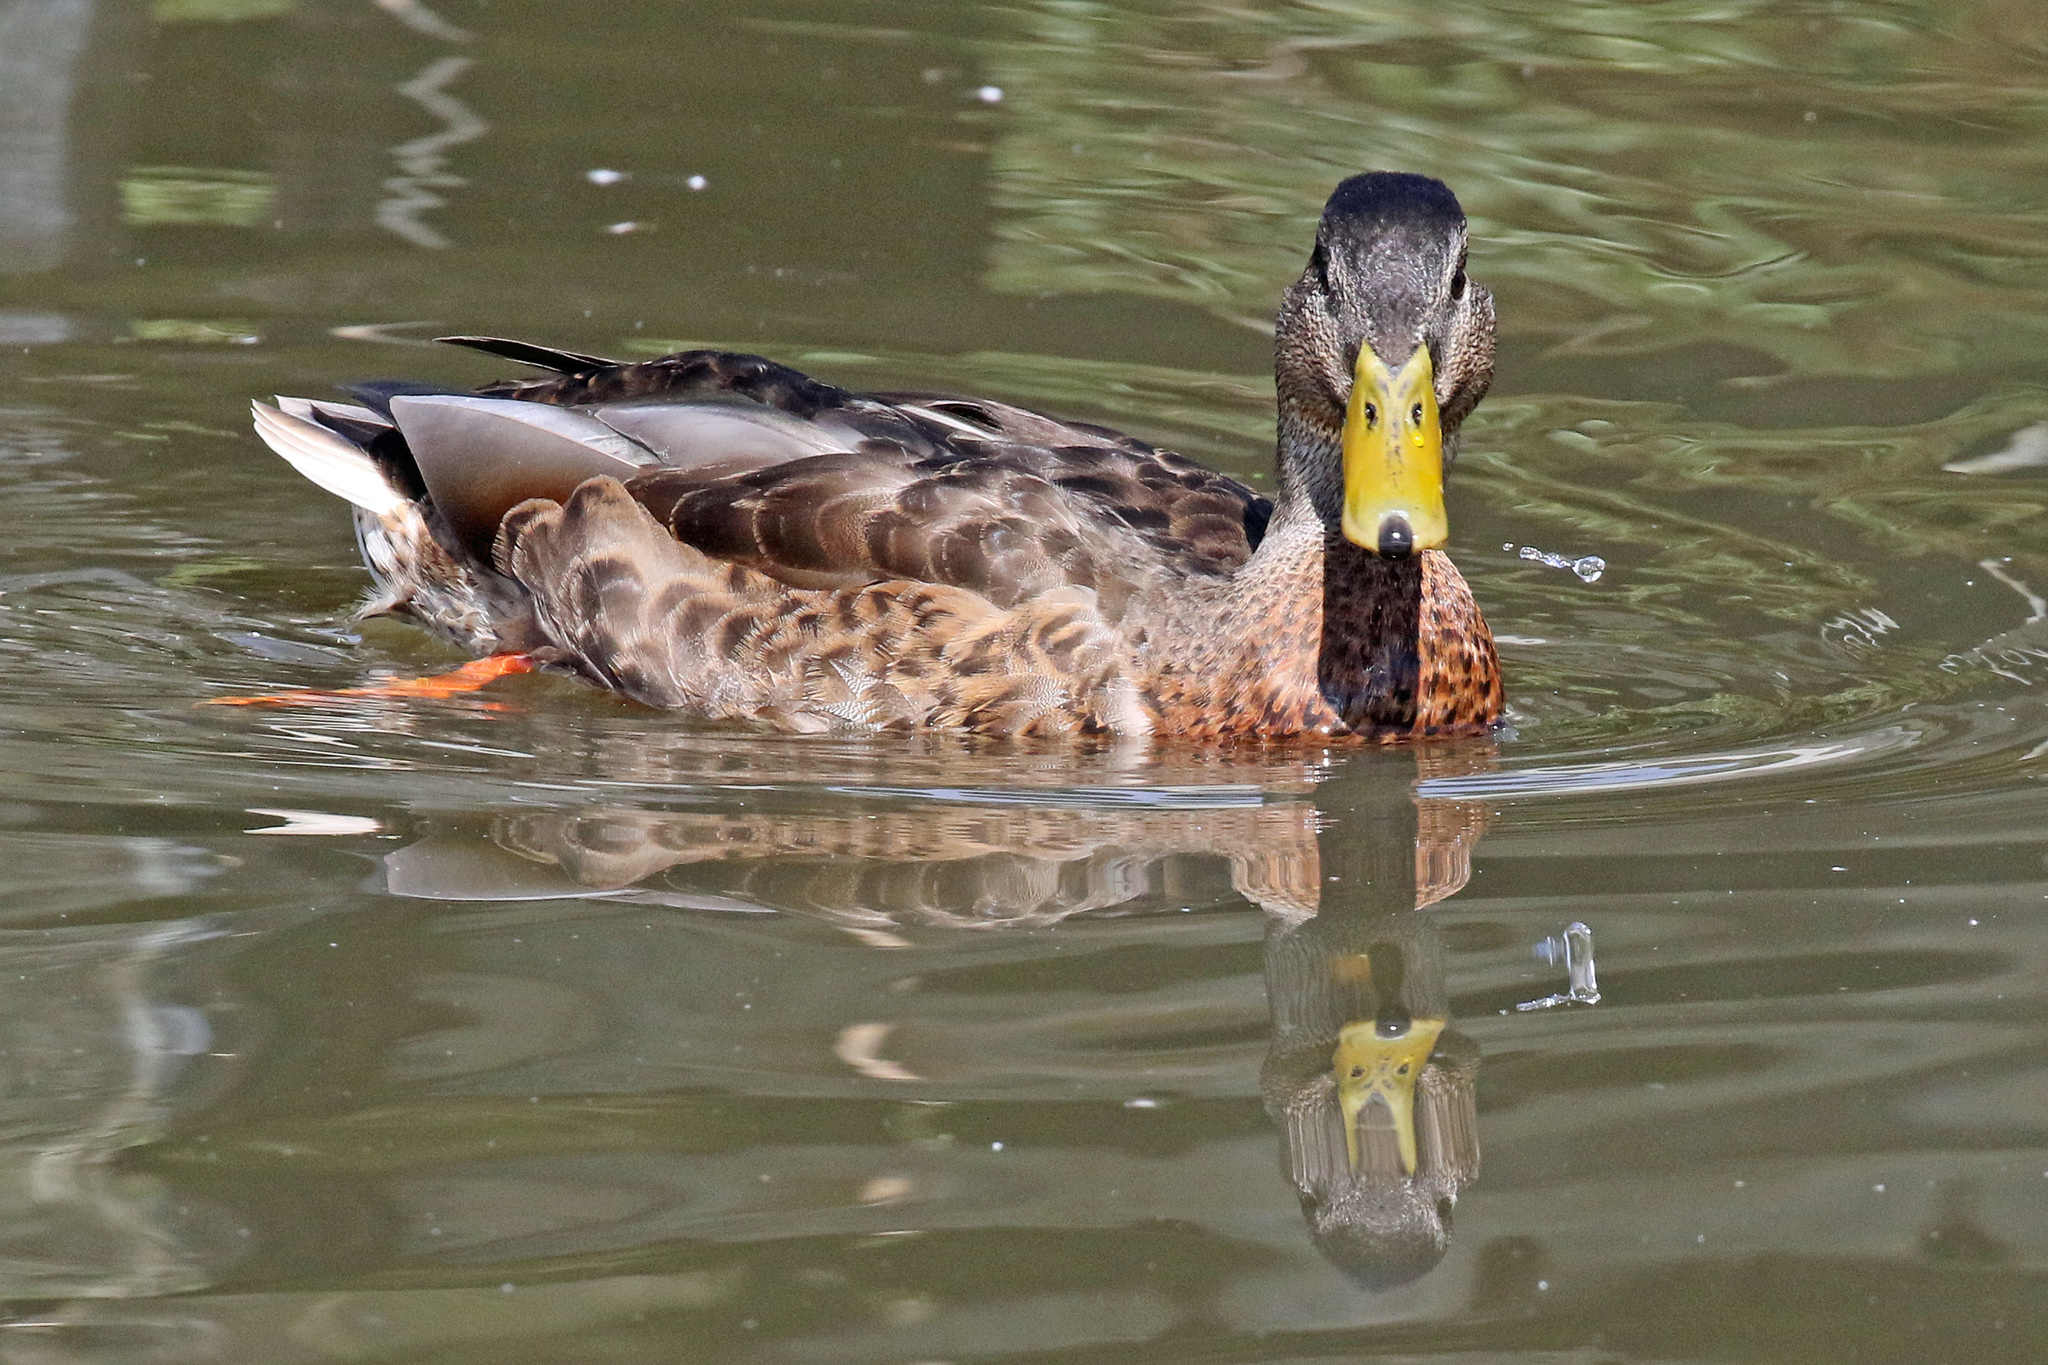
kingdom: Animalia
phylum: Chordata
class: Aves
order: Anseriformes
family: Anatidae
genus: Anas
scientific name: Anas platyrhynchos
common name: Mallard
